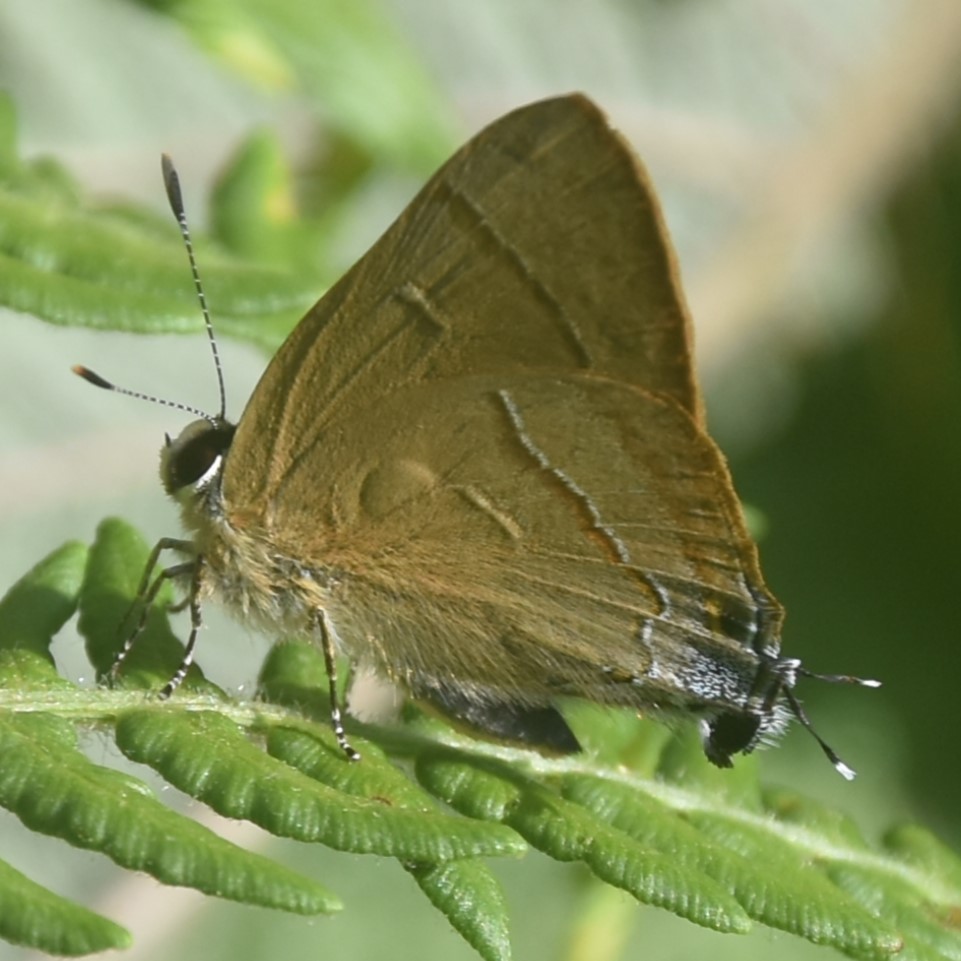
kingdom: Animalia
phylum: Arthropoda
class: Insecta
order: Lepidoptera
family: Lycaenidae
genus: Rapala
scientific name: Rapala nissa
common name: Common flash
